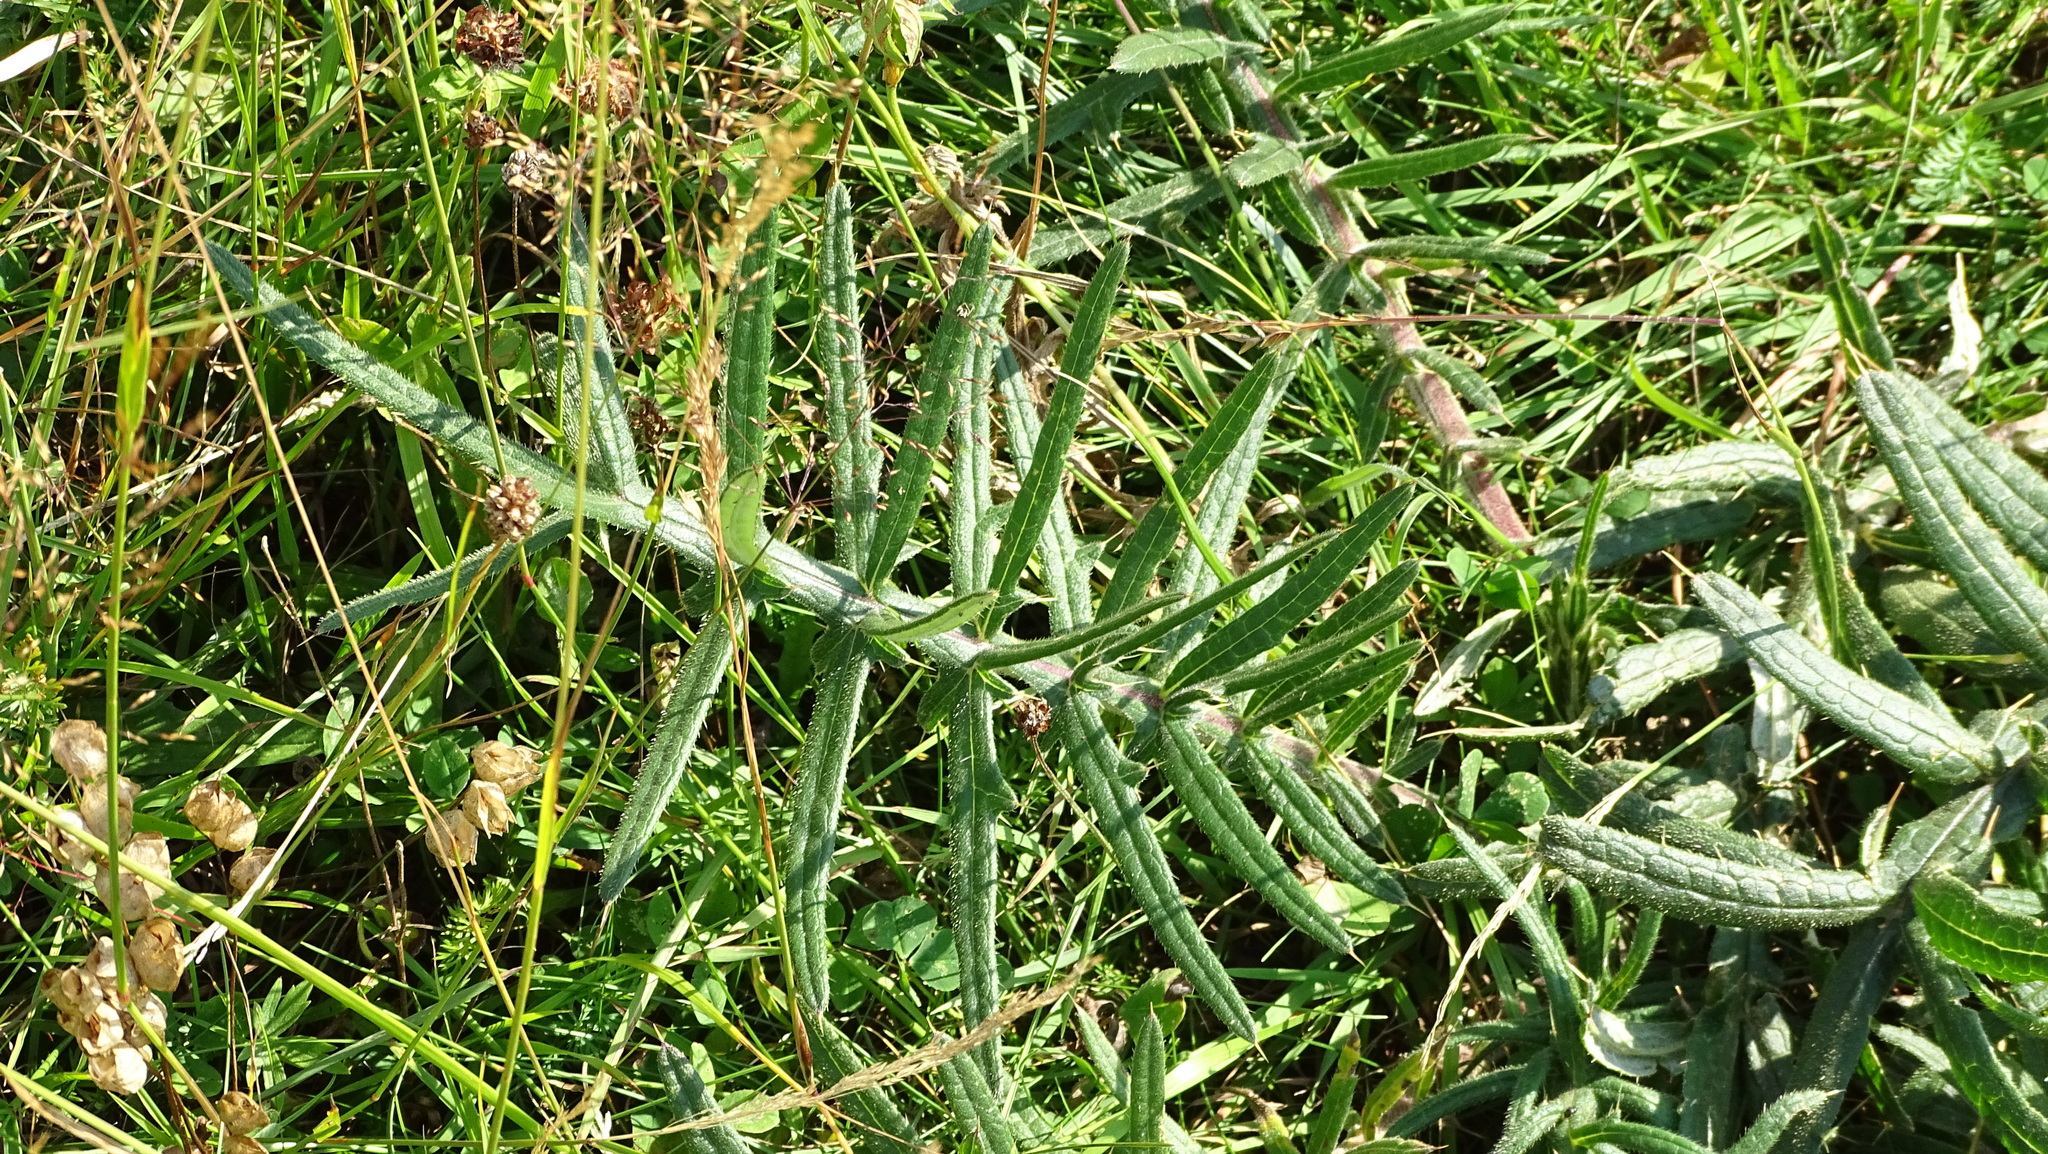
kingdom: Plantae
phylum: Tracheophyta
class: Magnoliopsida
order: Asterales
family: Asteraceae
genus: Lophiolepis
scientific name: Lophiolepis eriophora
